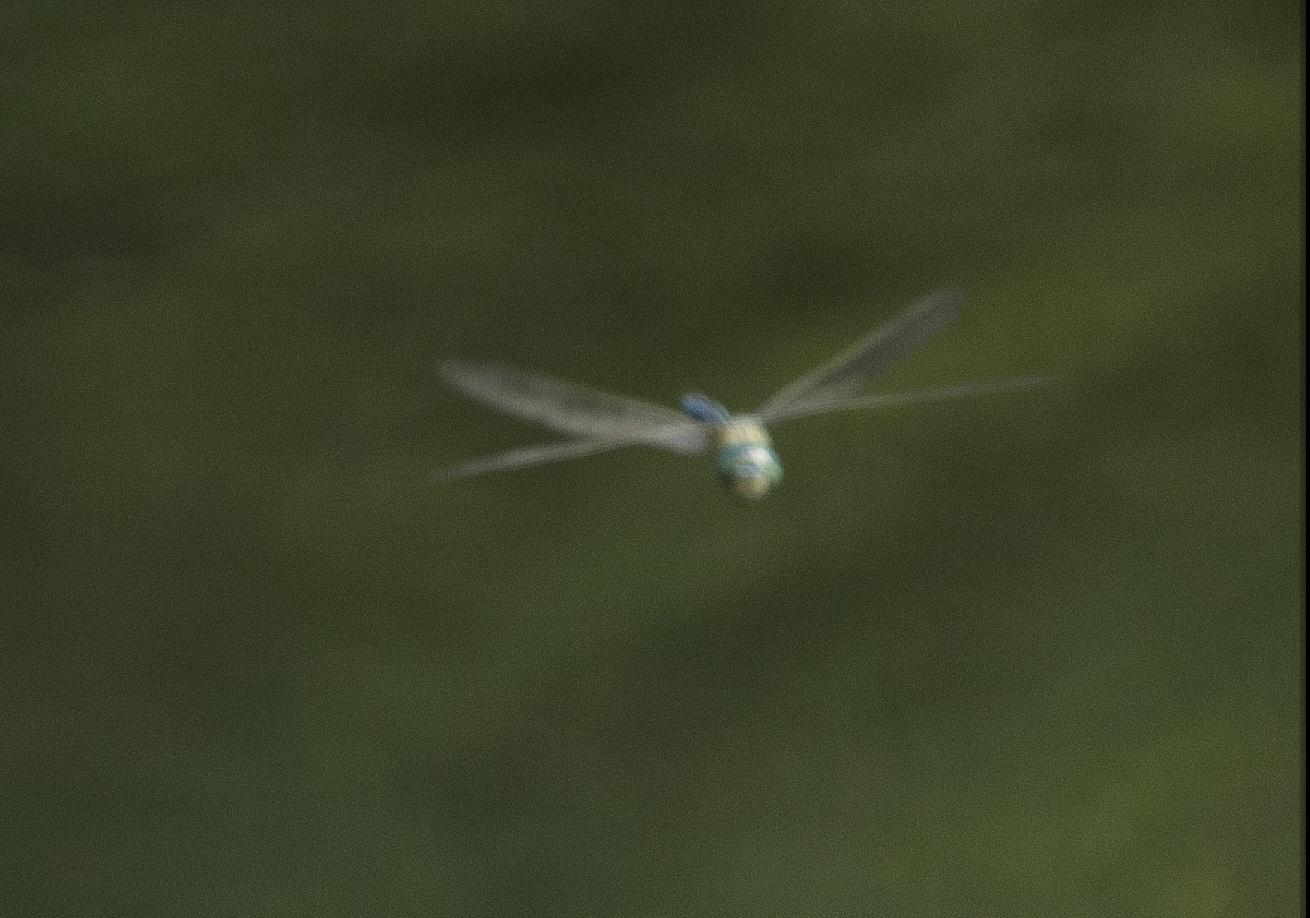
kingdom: Animalia
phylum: Arthropoda
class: Insecta
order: Odonata
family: Aeshnidae
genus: Anax
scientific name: Anax imperator
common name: Emperor dragonfly
